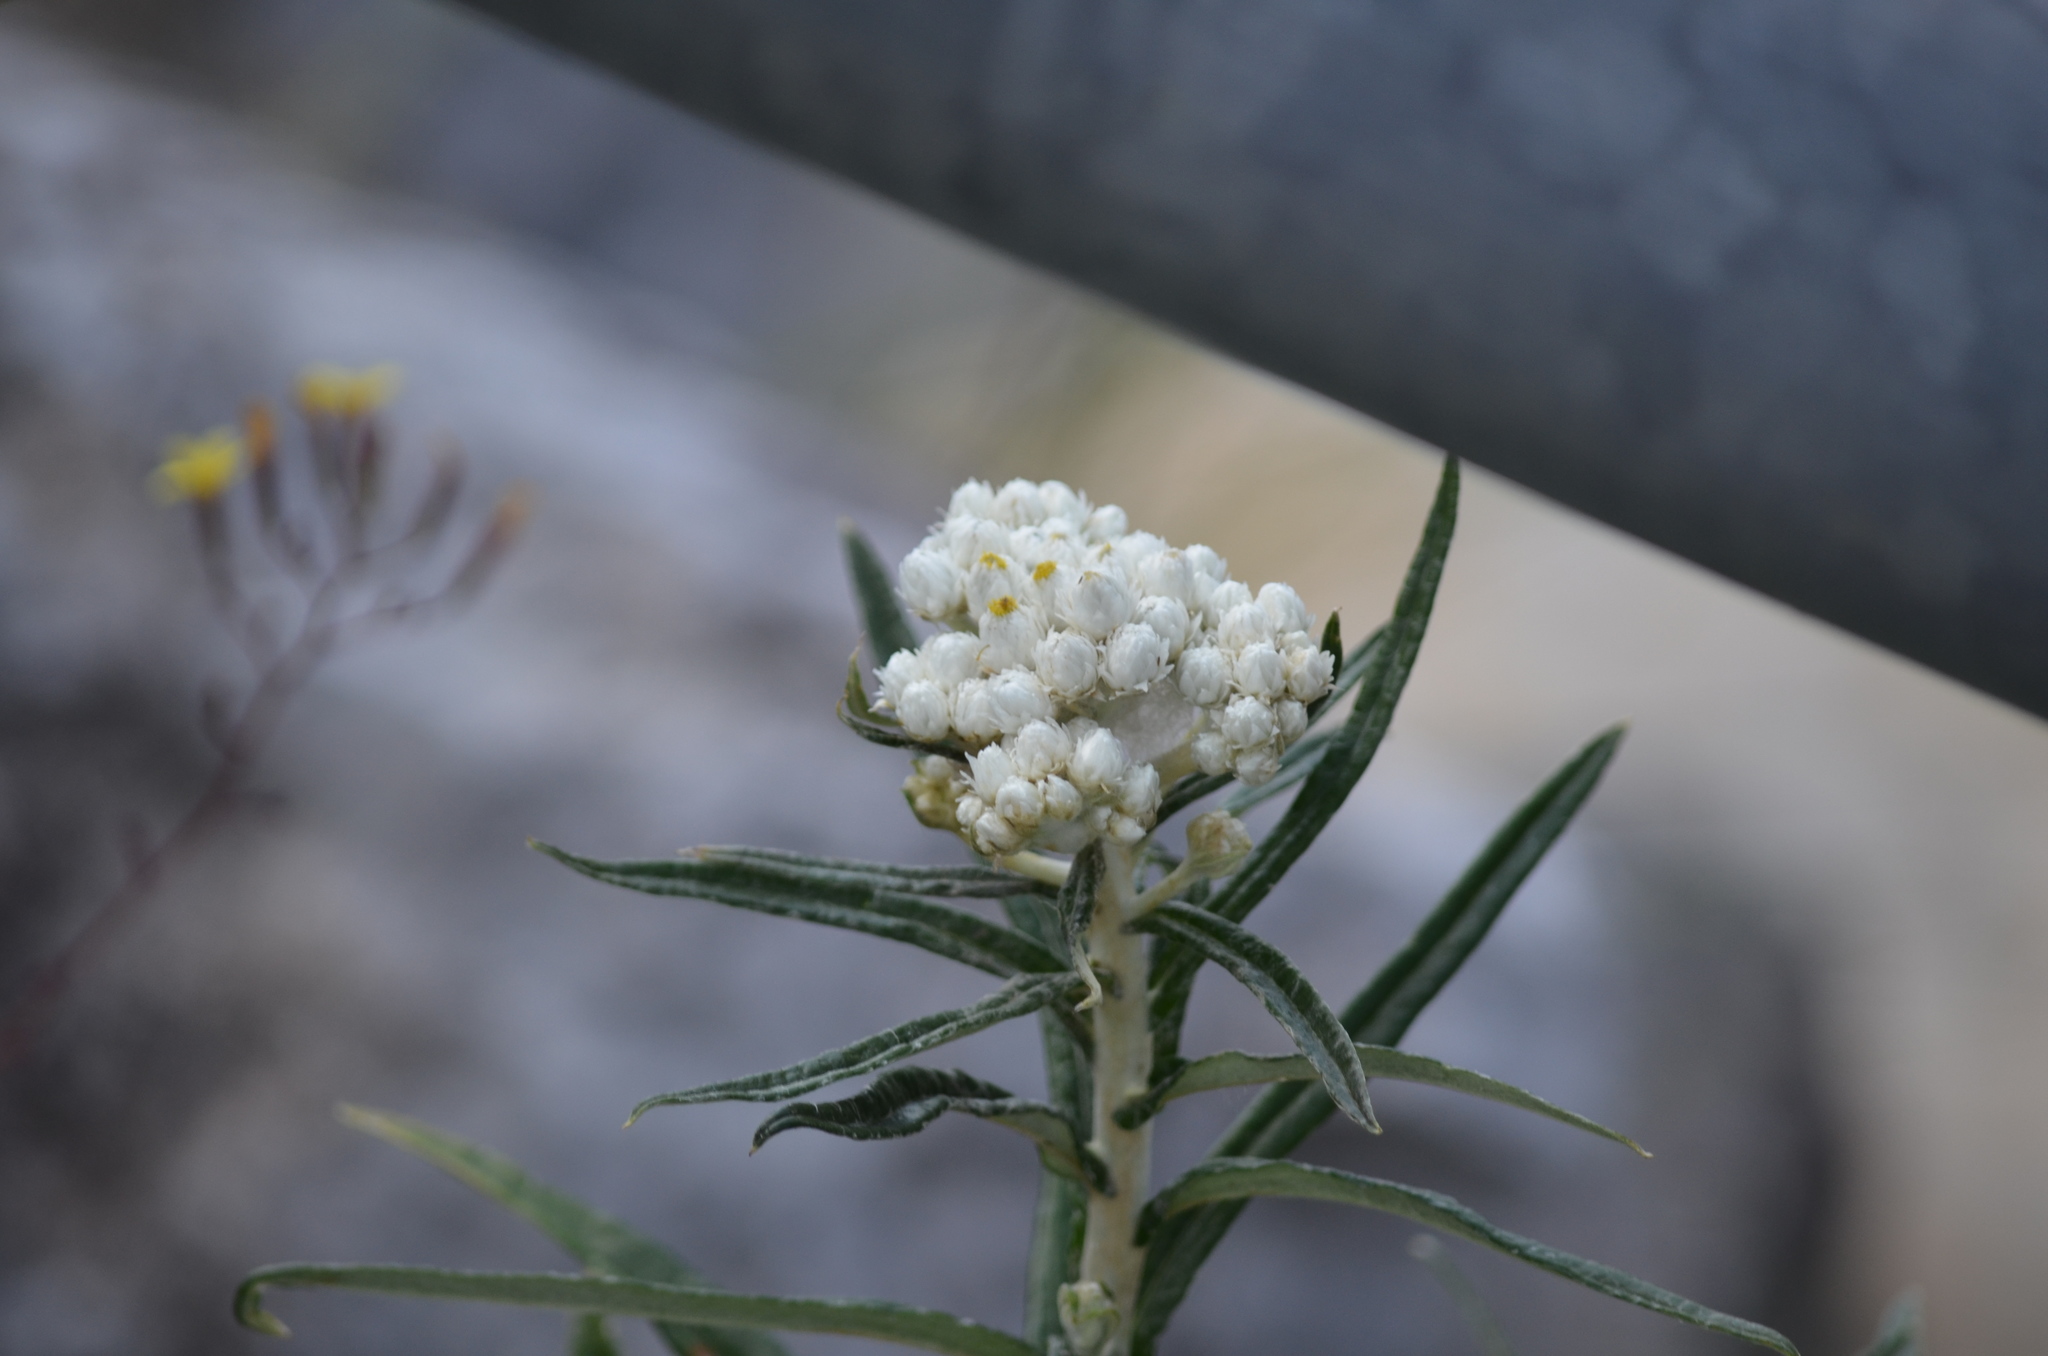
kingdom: Plantae
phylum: Tracheophyta
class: Magnoliopsida
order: Asterales
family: Asteraceae
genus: Anaphalis
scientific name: Anaphalis margaritacea
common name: Pearly everlasting
